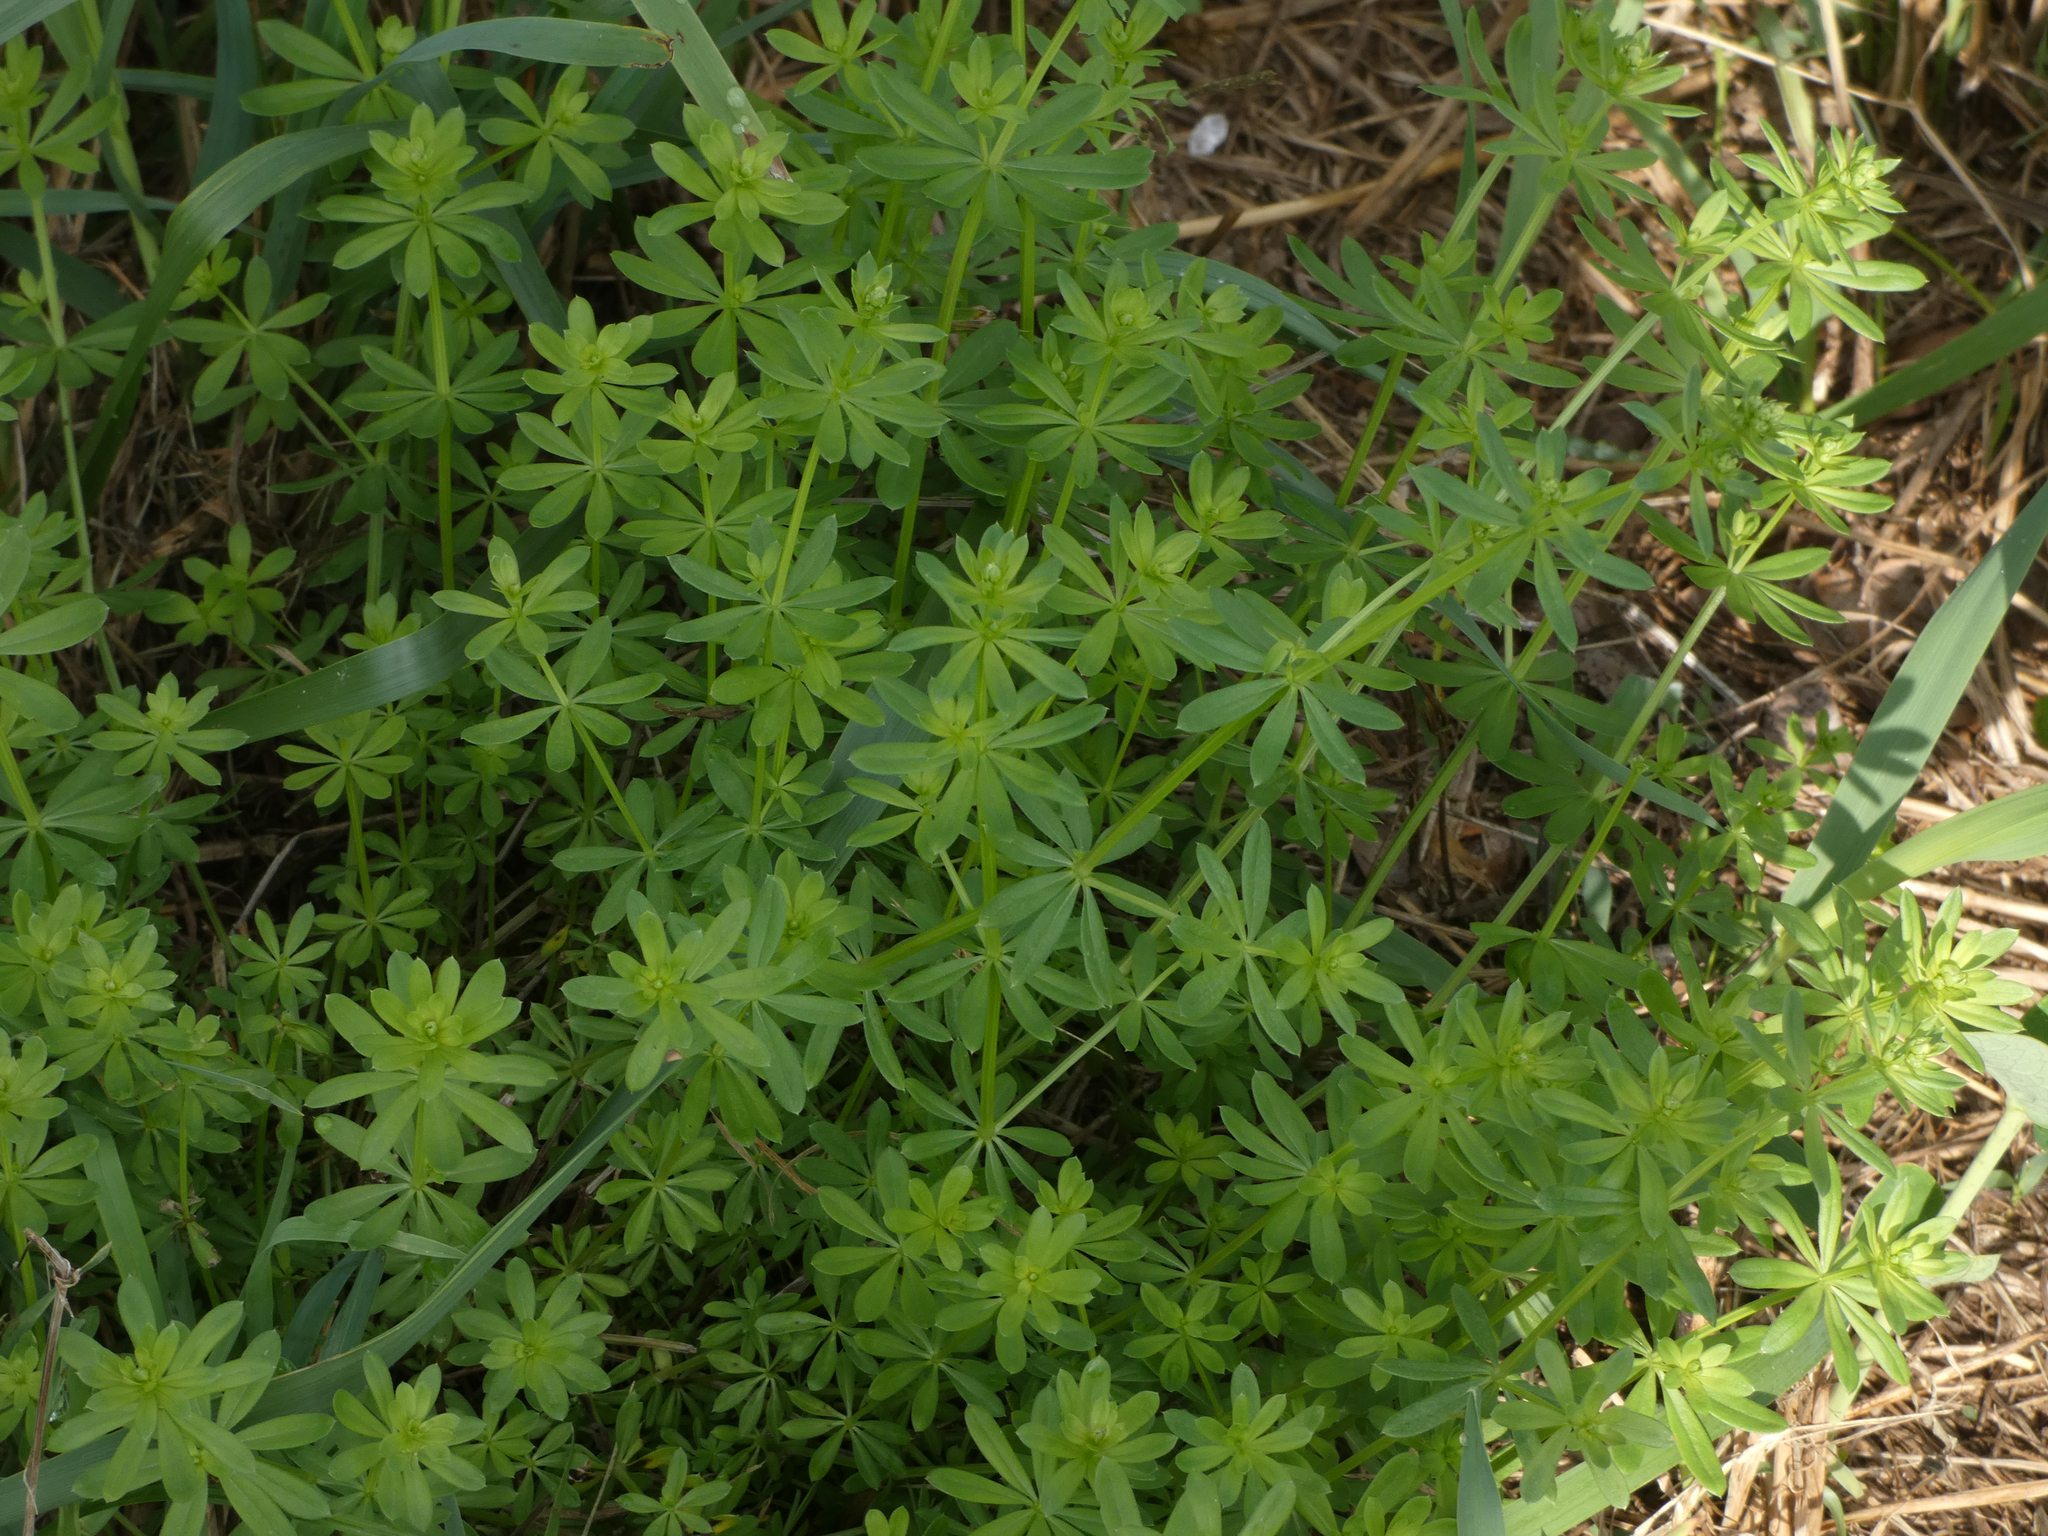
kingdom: Plantae
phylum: Tracheophyta
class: Magnoliopsida
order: Gentianales
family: Rubiaceae
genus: Galium
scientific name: Galium mollugo
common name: Hedge bedstraw
